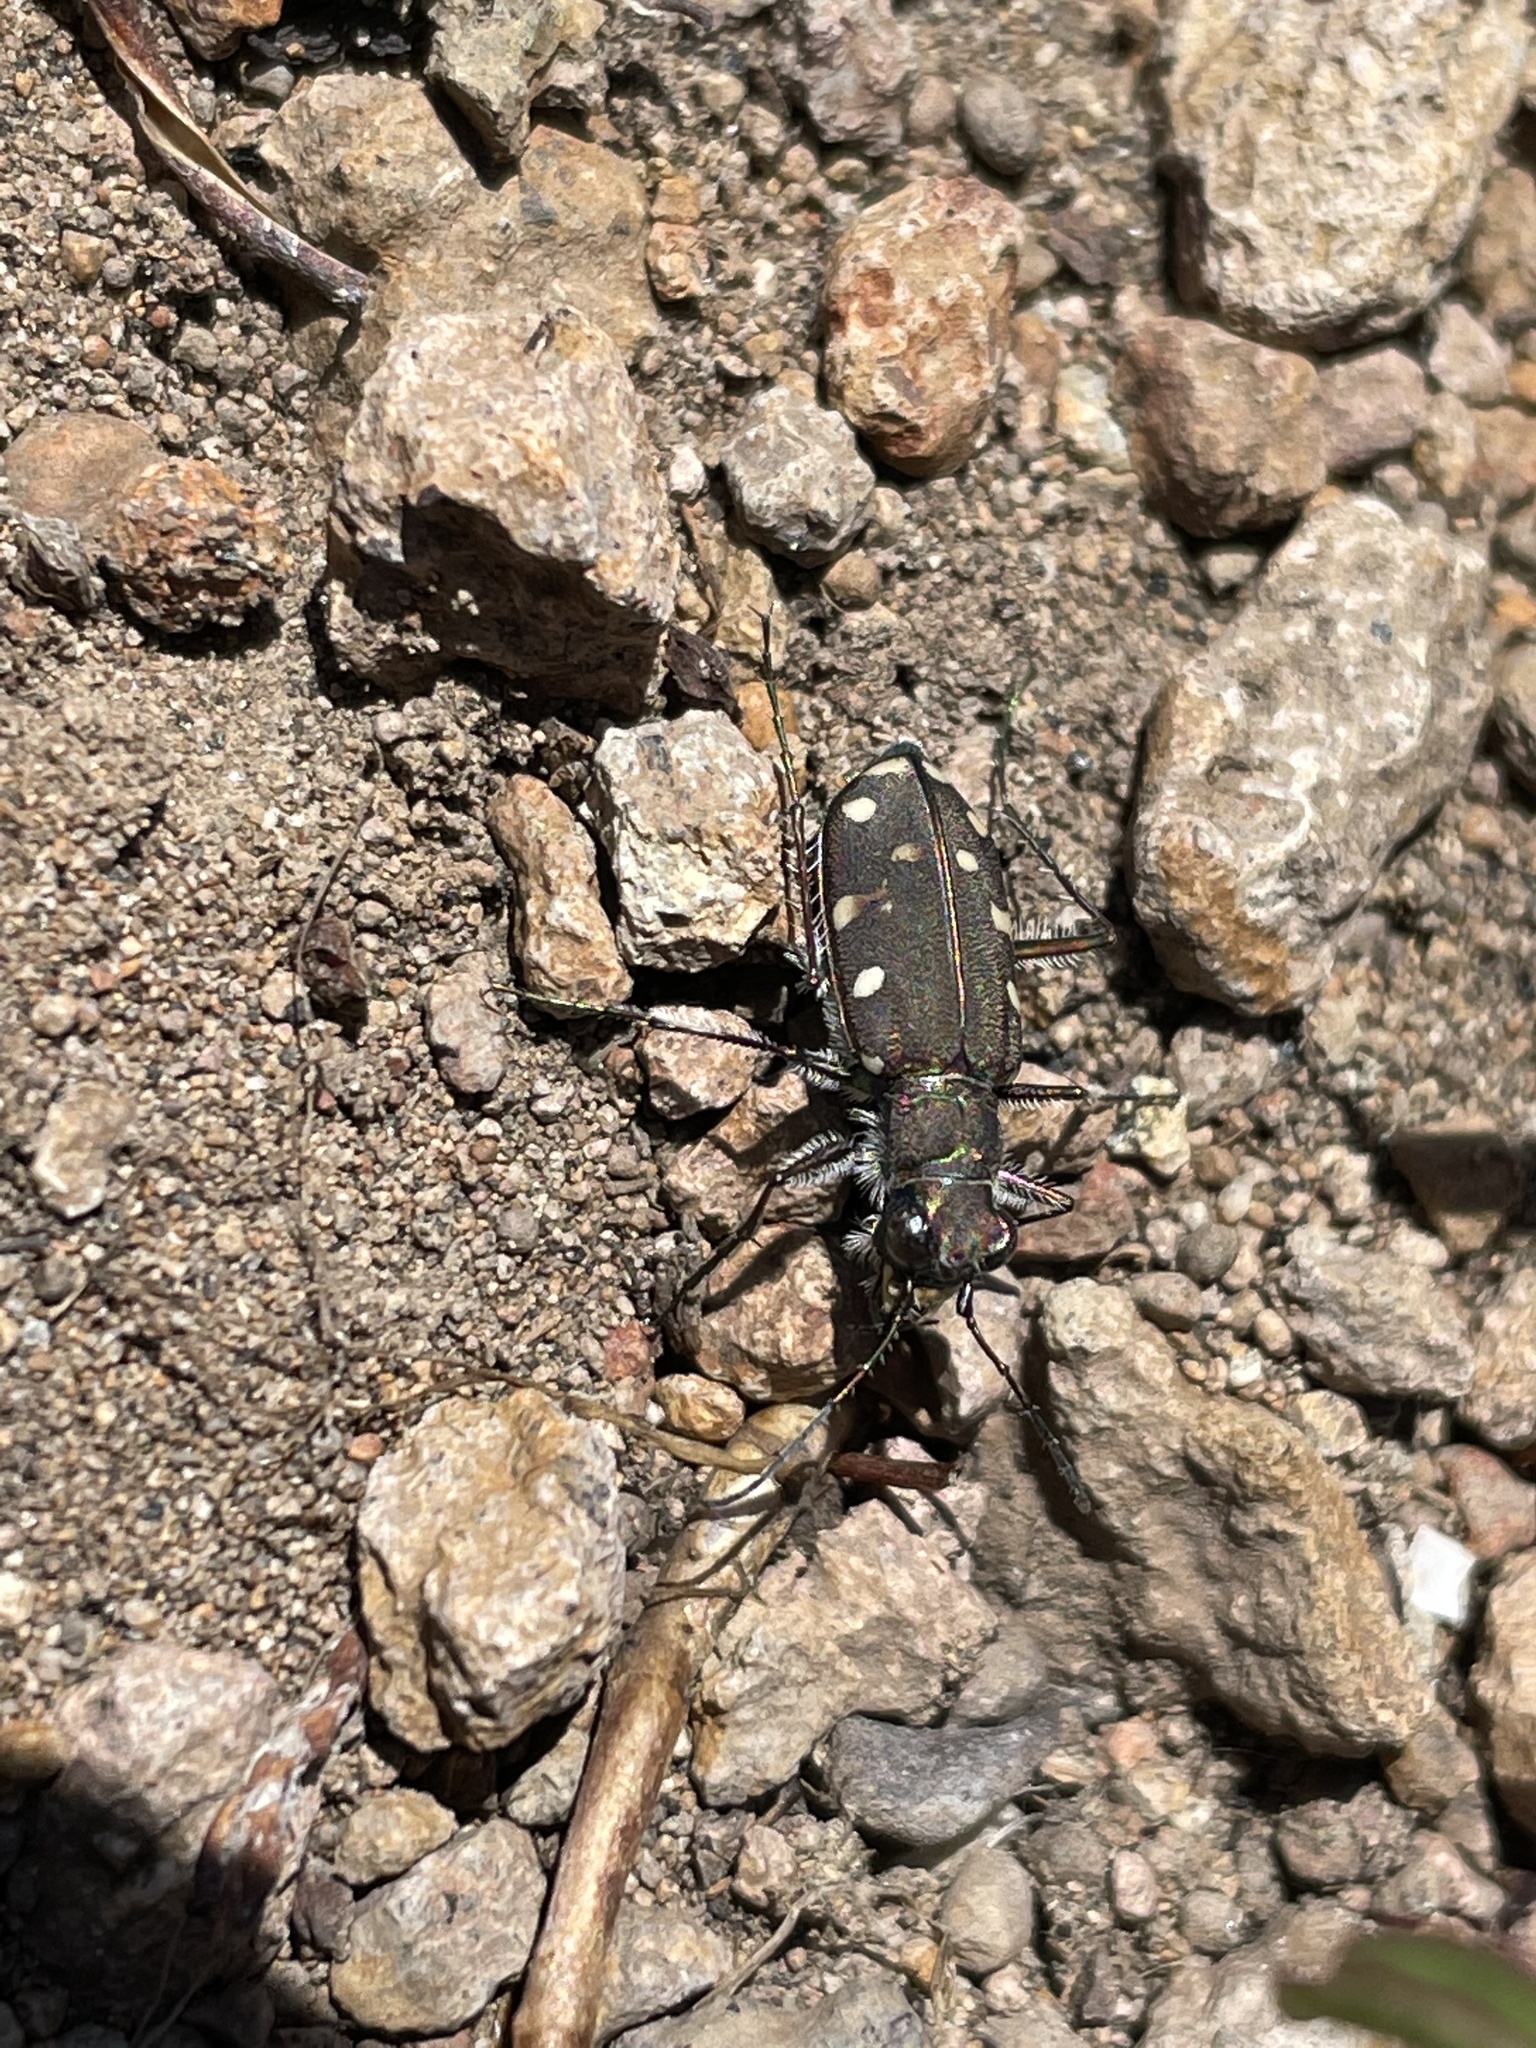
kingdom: Animalia
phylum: Arthropoda
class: Insecta
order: Coleoptera
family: Carabidae
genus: Cicindela
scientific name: Cicindela oregona
